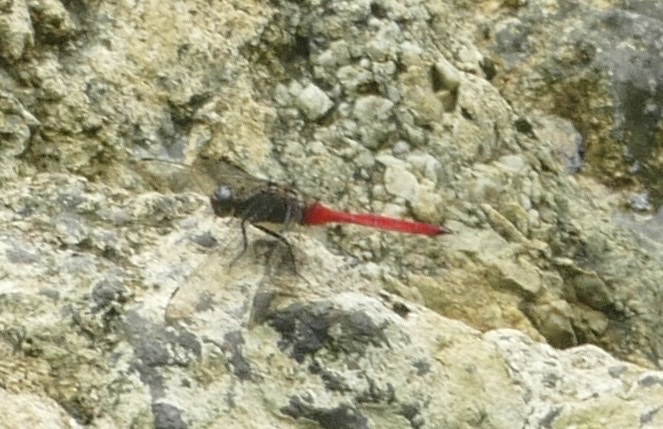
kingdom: Animalia
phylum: Arthropoda
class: Insecta
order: Odonata
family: Libellulidae
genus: Orthetrum
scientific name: Orthetrum villosovittatum
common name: Firery skimmer
